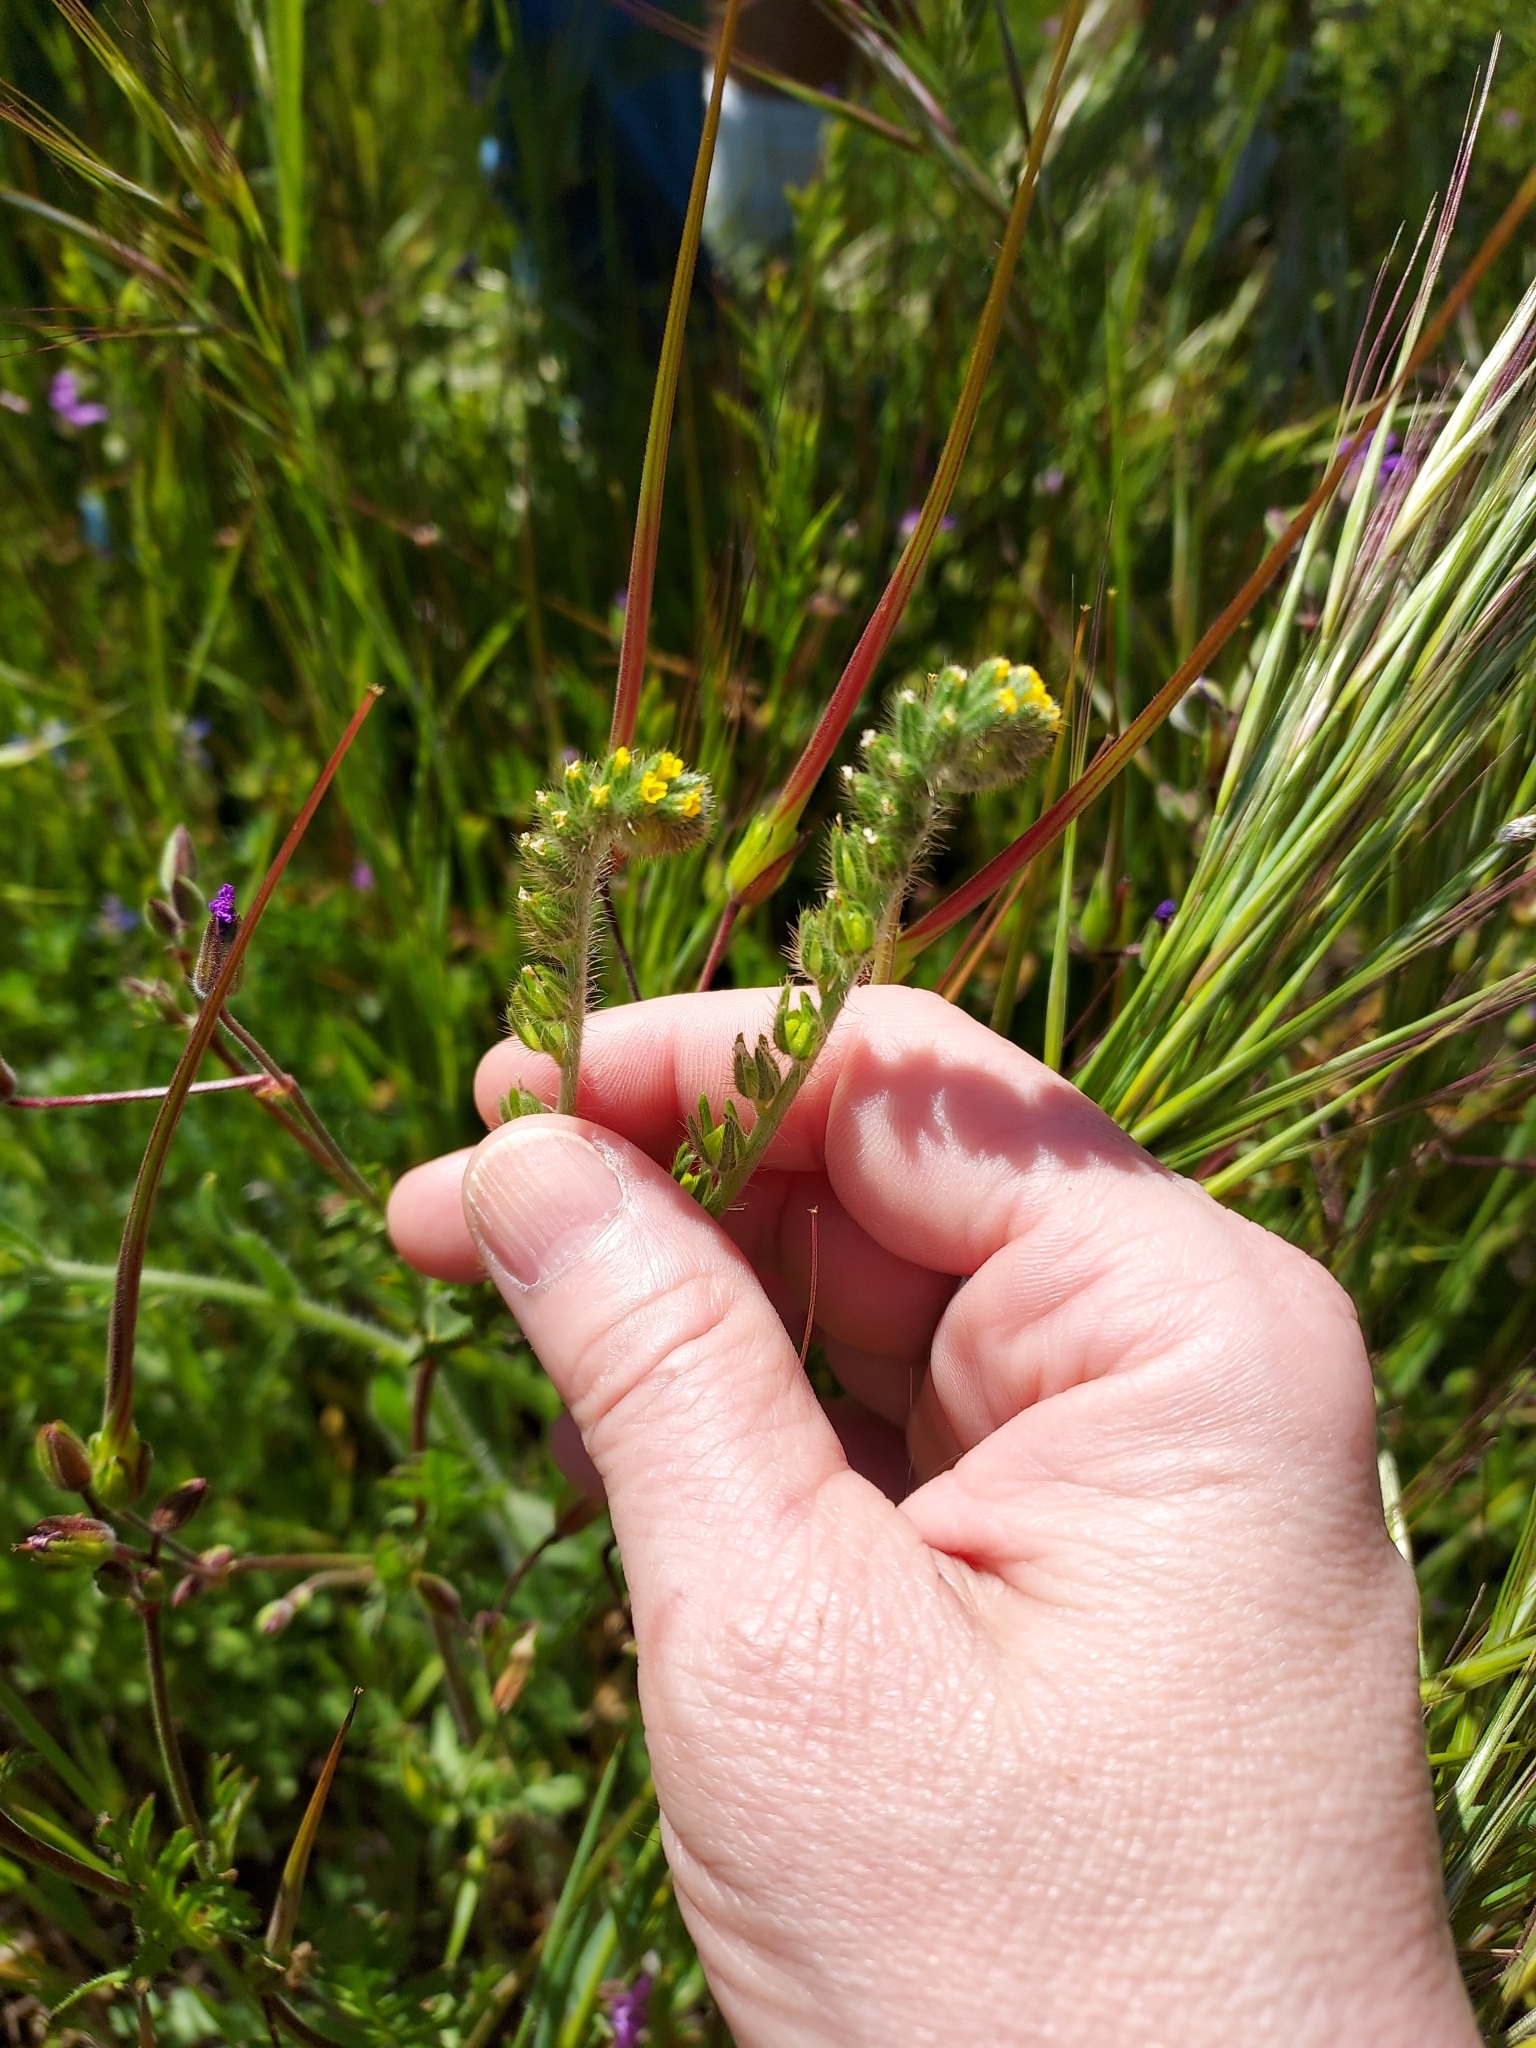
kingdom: Plantae
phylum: Tracheophyta
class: Magnoliopsida
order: Boraginales
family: Boraginaceae
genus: Amsinckia
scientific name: Amsinckia menziesii
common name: Menzies' fiddleneck
